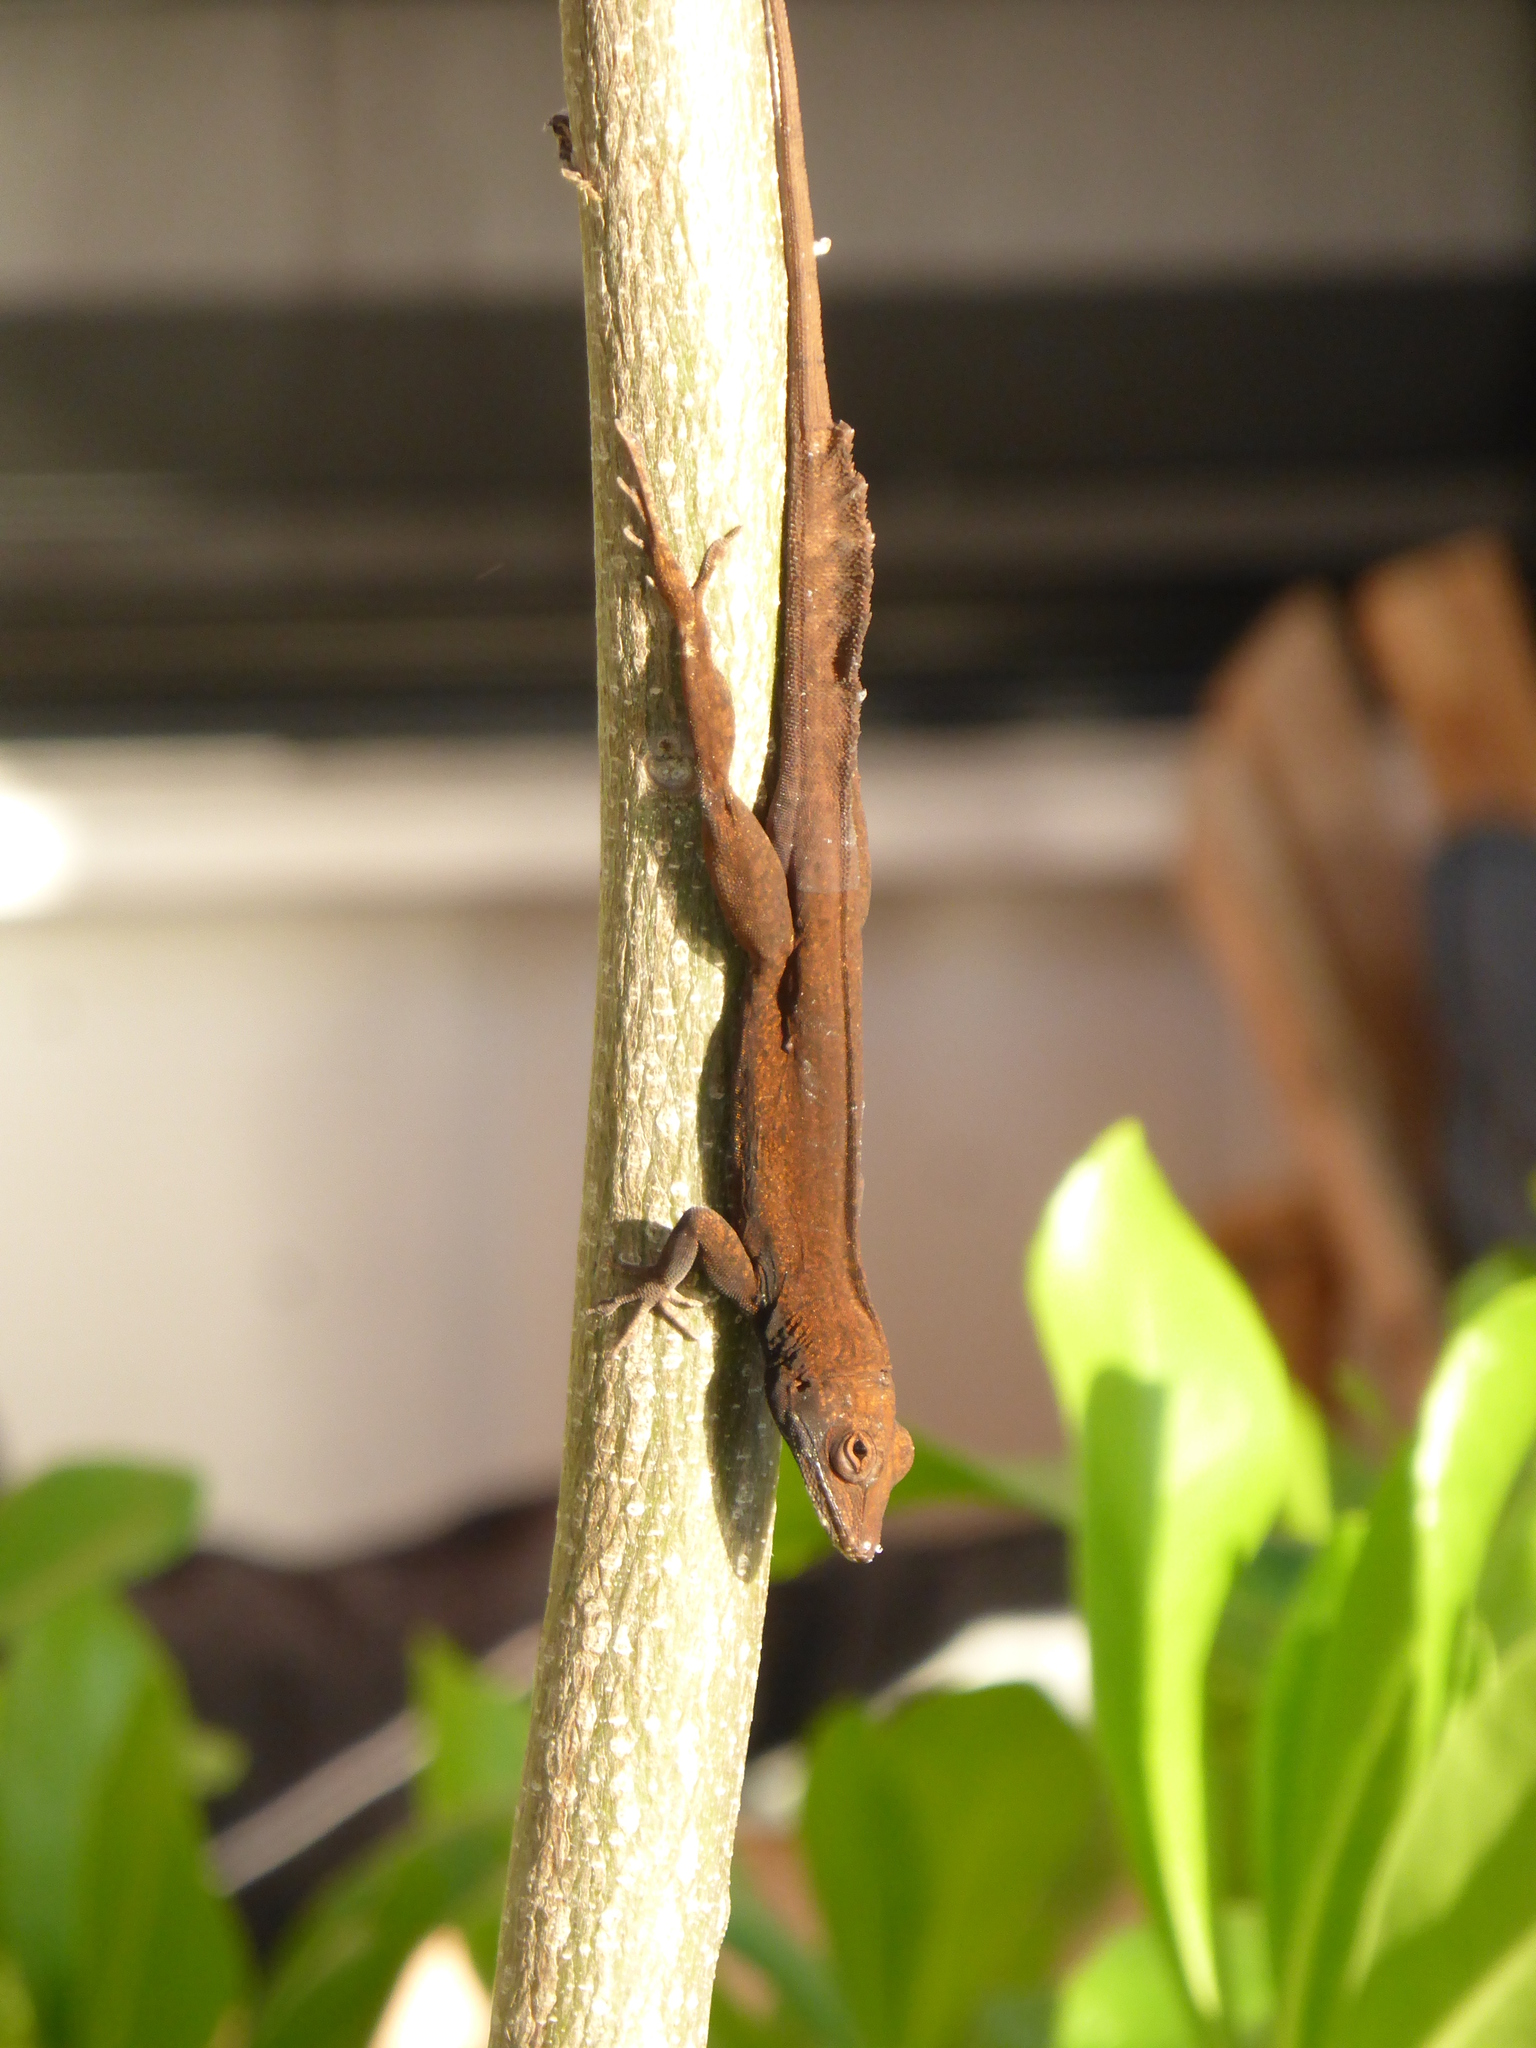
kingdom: Animalia
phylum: Chordata
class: Squamata
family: Dactyloidae
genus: Anolis
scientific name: Anolis scriptus
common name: Silver key anole
